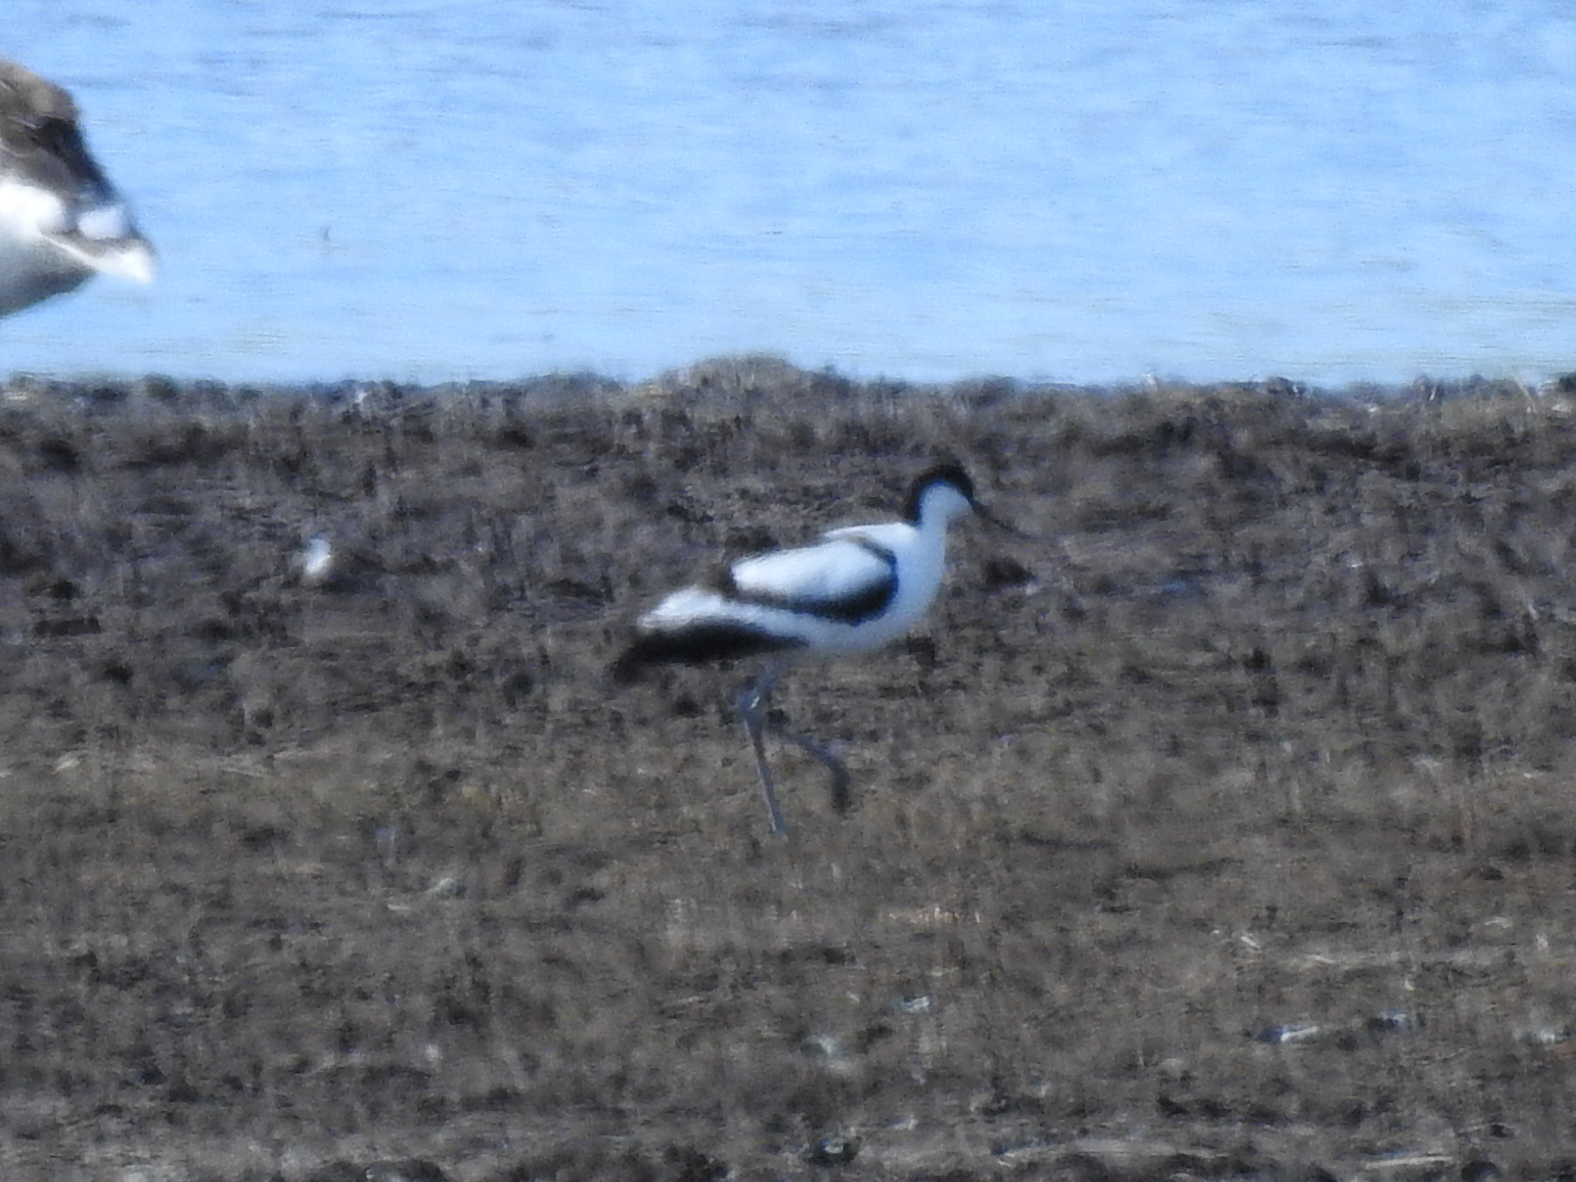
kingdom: Animalia
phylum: Chordata
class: Aves
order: Charadriiformes
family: Recurvirostridae
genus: Recurvirostra
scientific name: Recurvirostra avosetta
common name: Pied avocet
